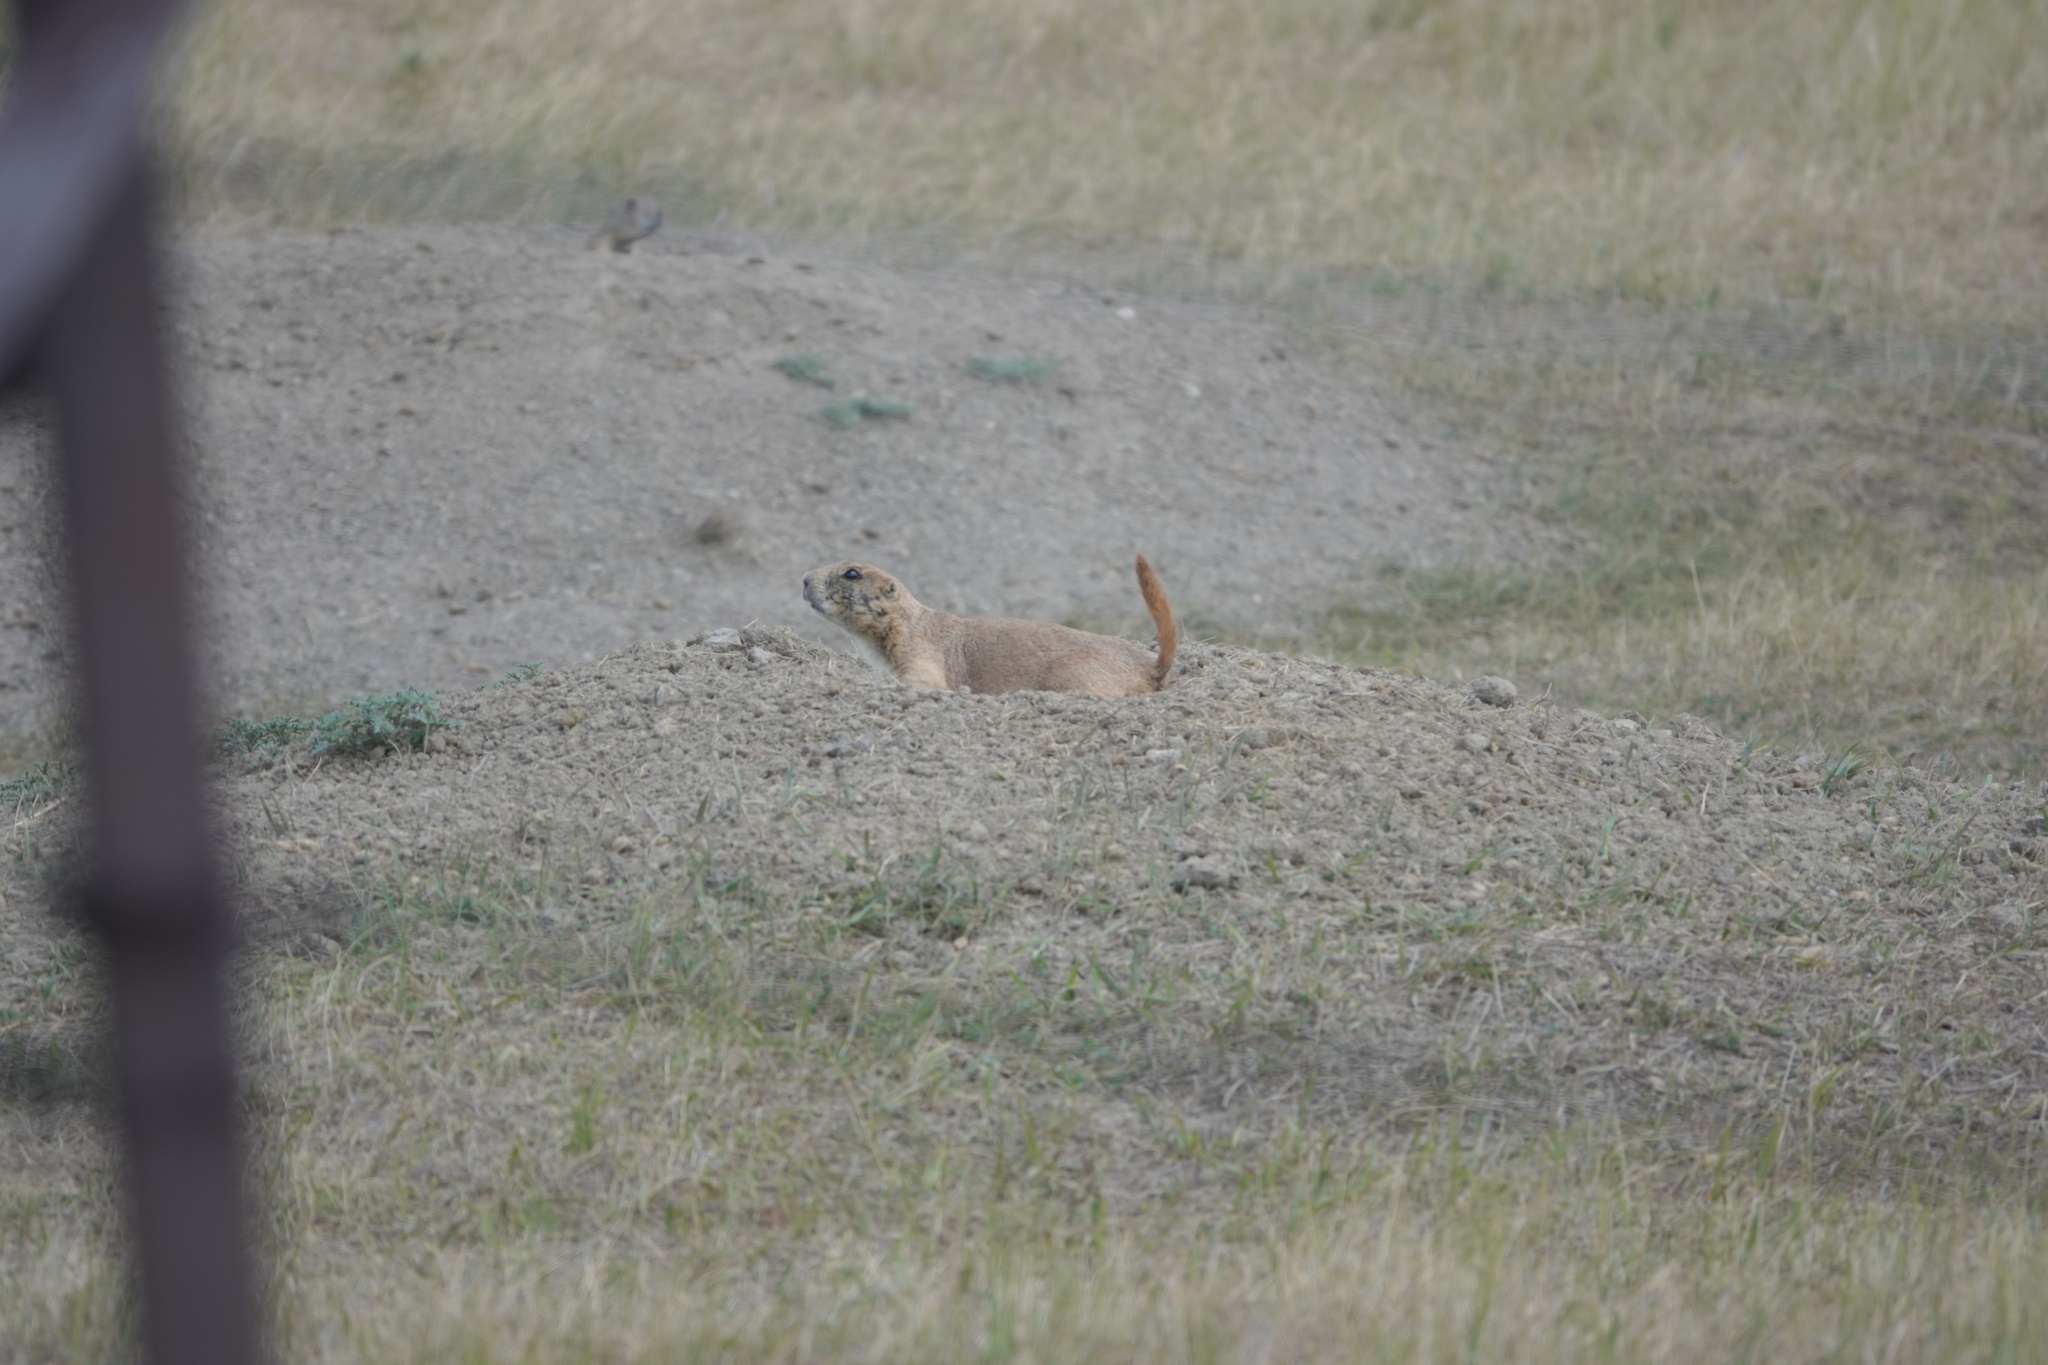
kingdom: Animalia
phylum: Chordata
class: Mammalia
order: Rodentia
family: Sciuridae
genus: Cynomys
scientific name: Cynomys ludovicianus
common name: Black-tailed prairie dog
